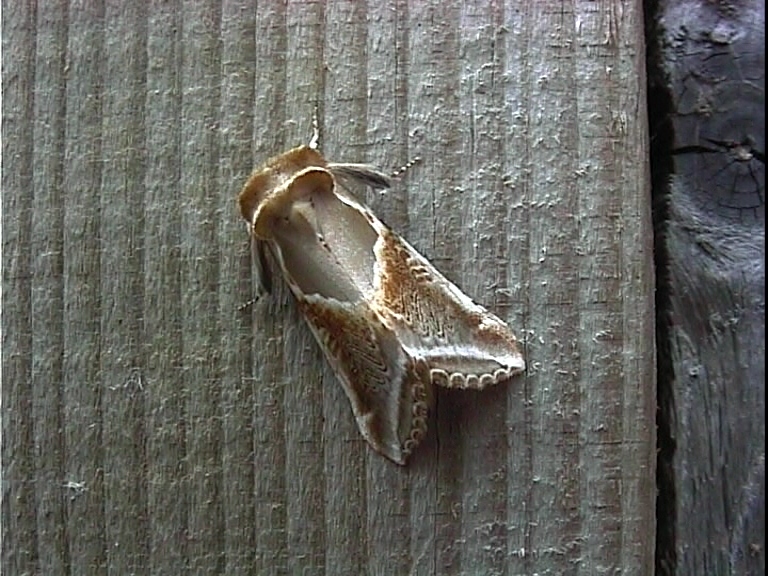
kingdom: Animalia
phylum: Arthropoda
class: Insecta
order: Lepidoptera
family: Drepanidae
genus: Habrosyne
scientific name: Habrosyne pyritoides
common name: Buff arches
